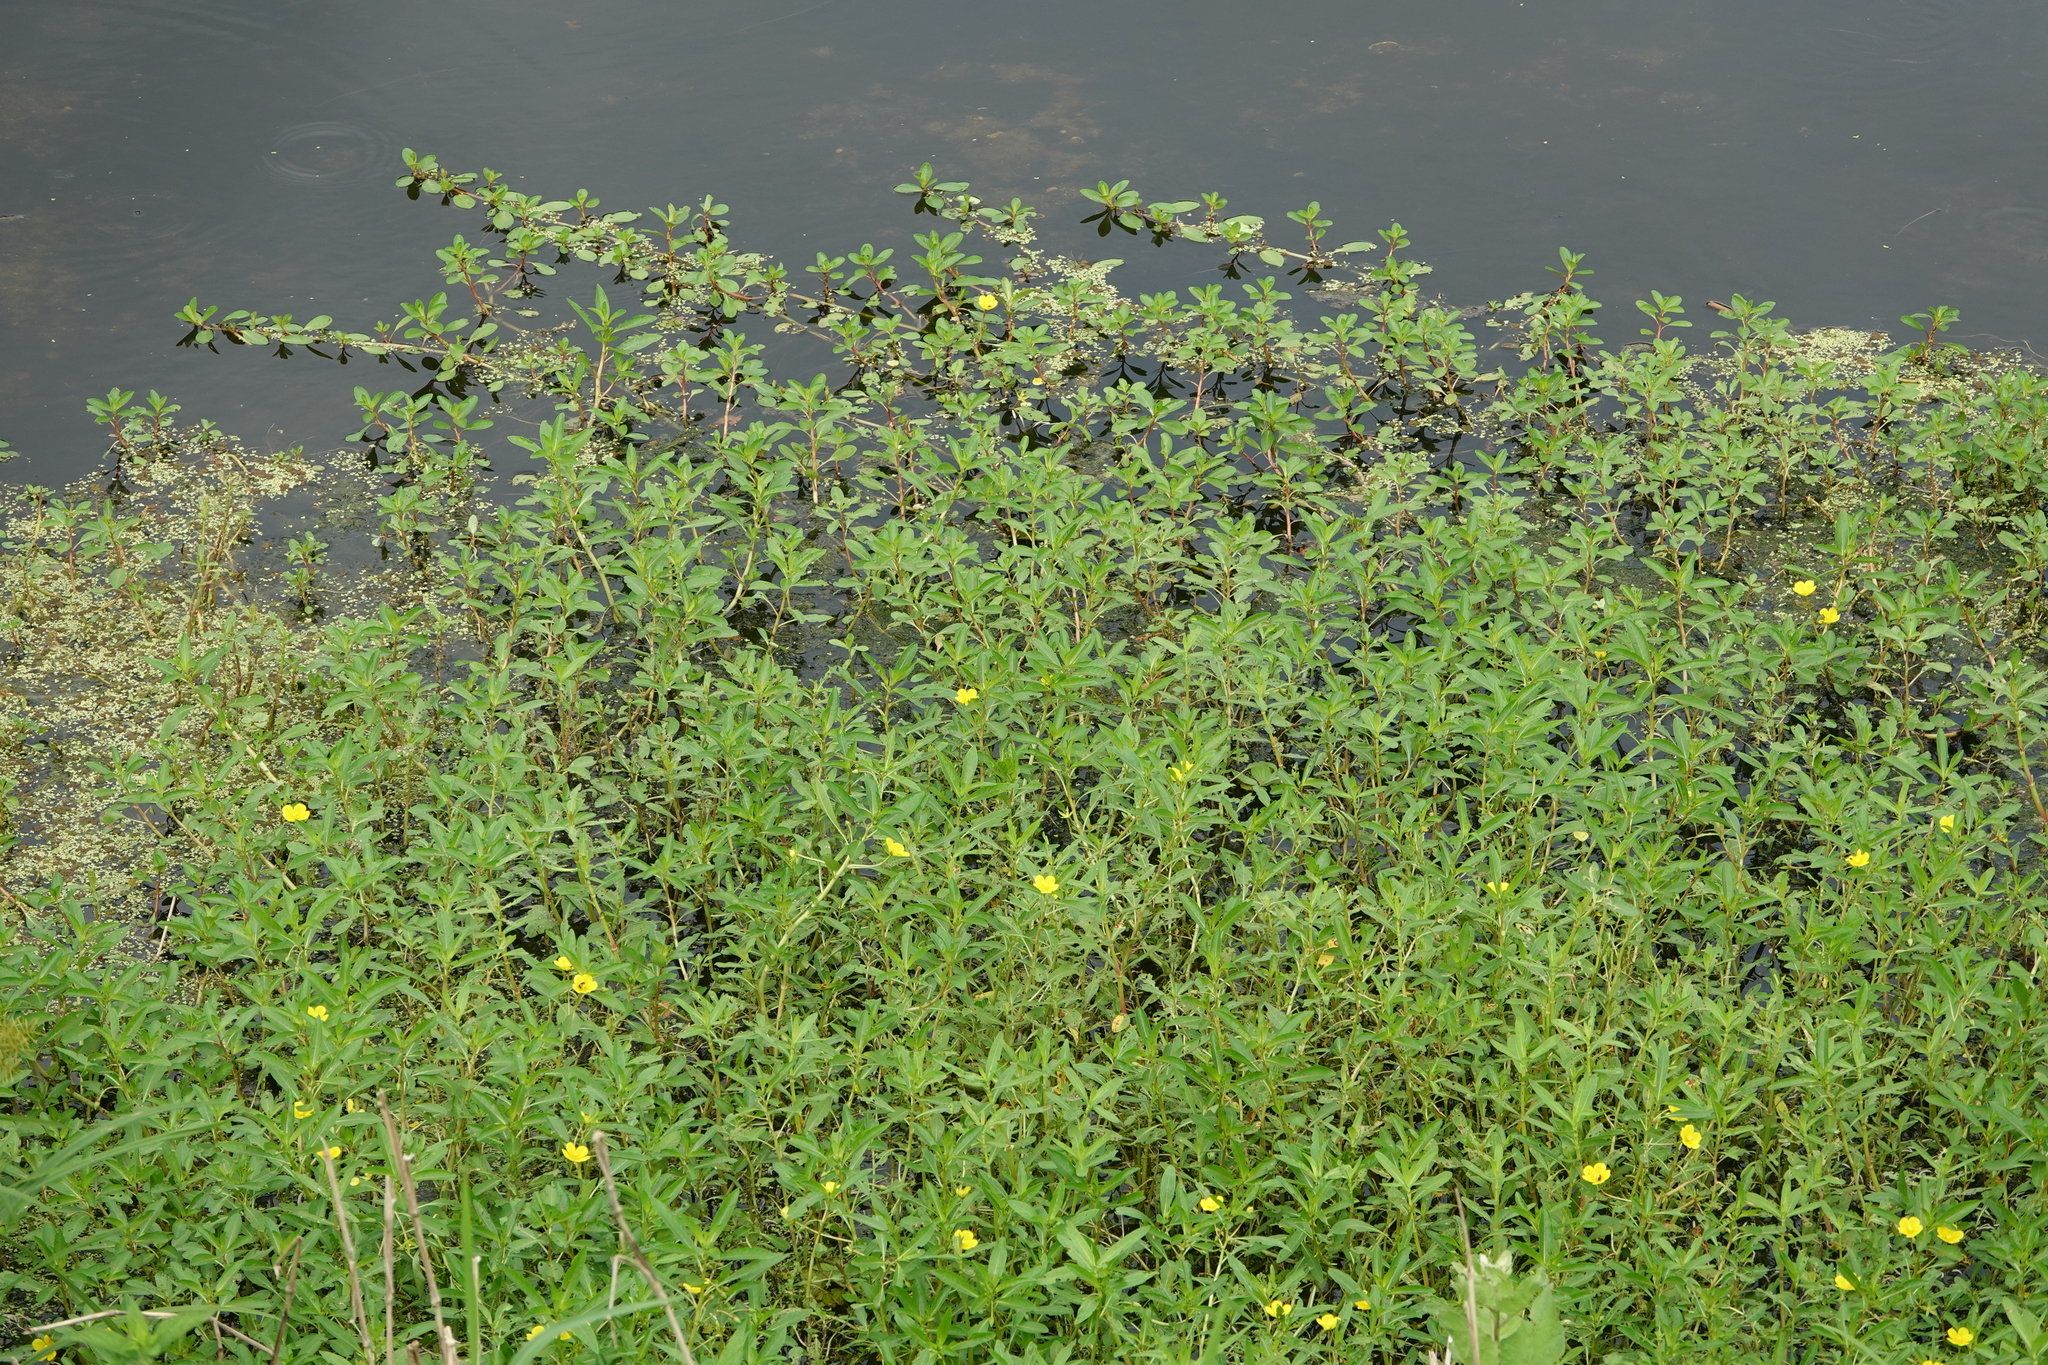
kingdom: Plantae
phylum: Tracheophyta
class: Magnoliopsida
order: Myrtales
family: Onagraceae
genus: Ludwigia
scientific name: Ludwigia peploides
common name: Floating primrose-willow
